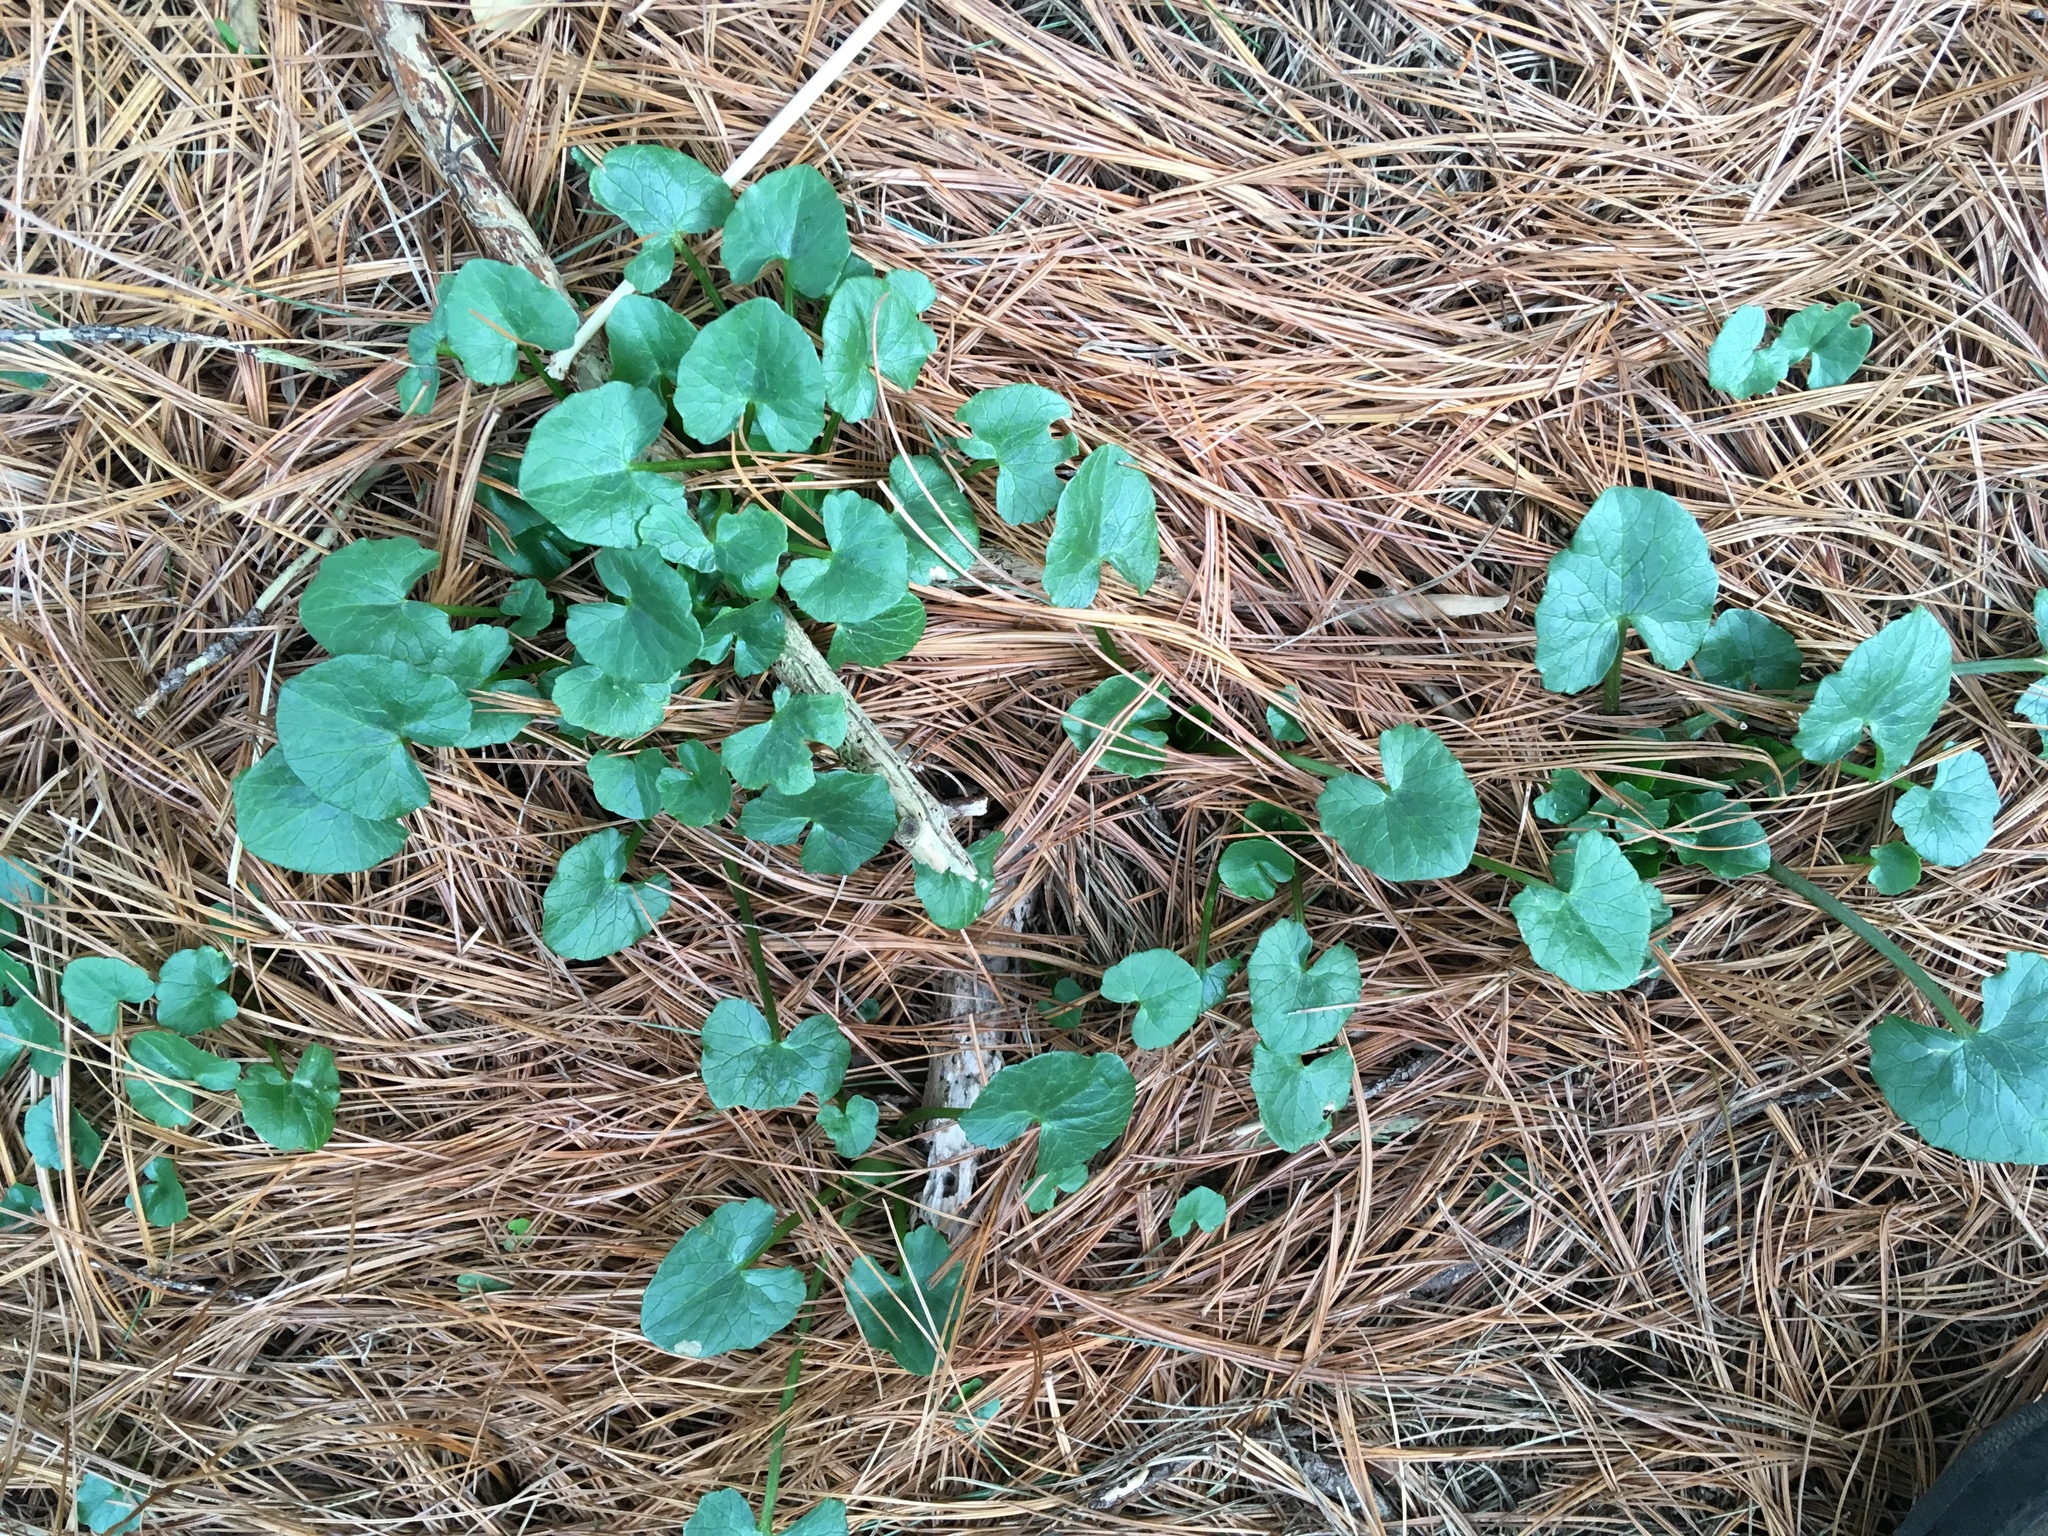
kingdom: Plantae
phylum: Tracheophyta
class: Magnoliopsida
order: Ranunculales
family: Ranunculaceae
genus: Ficaria
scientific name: Ficaria verna
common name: Lesser celandine
